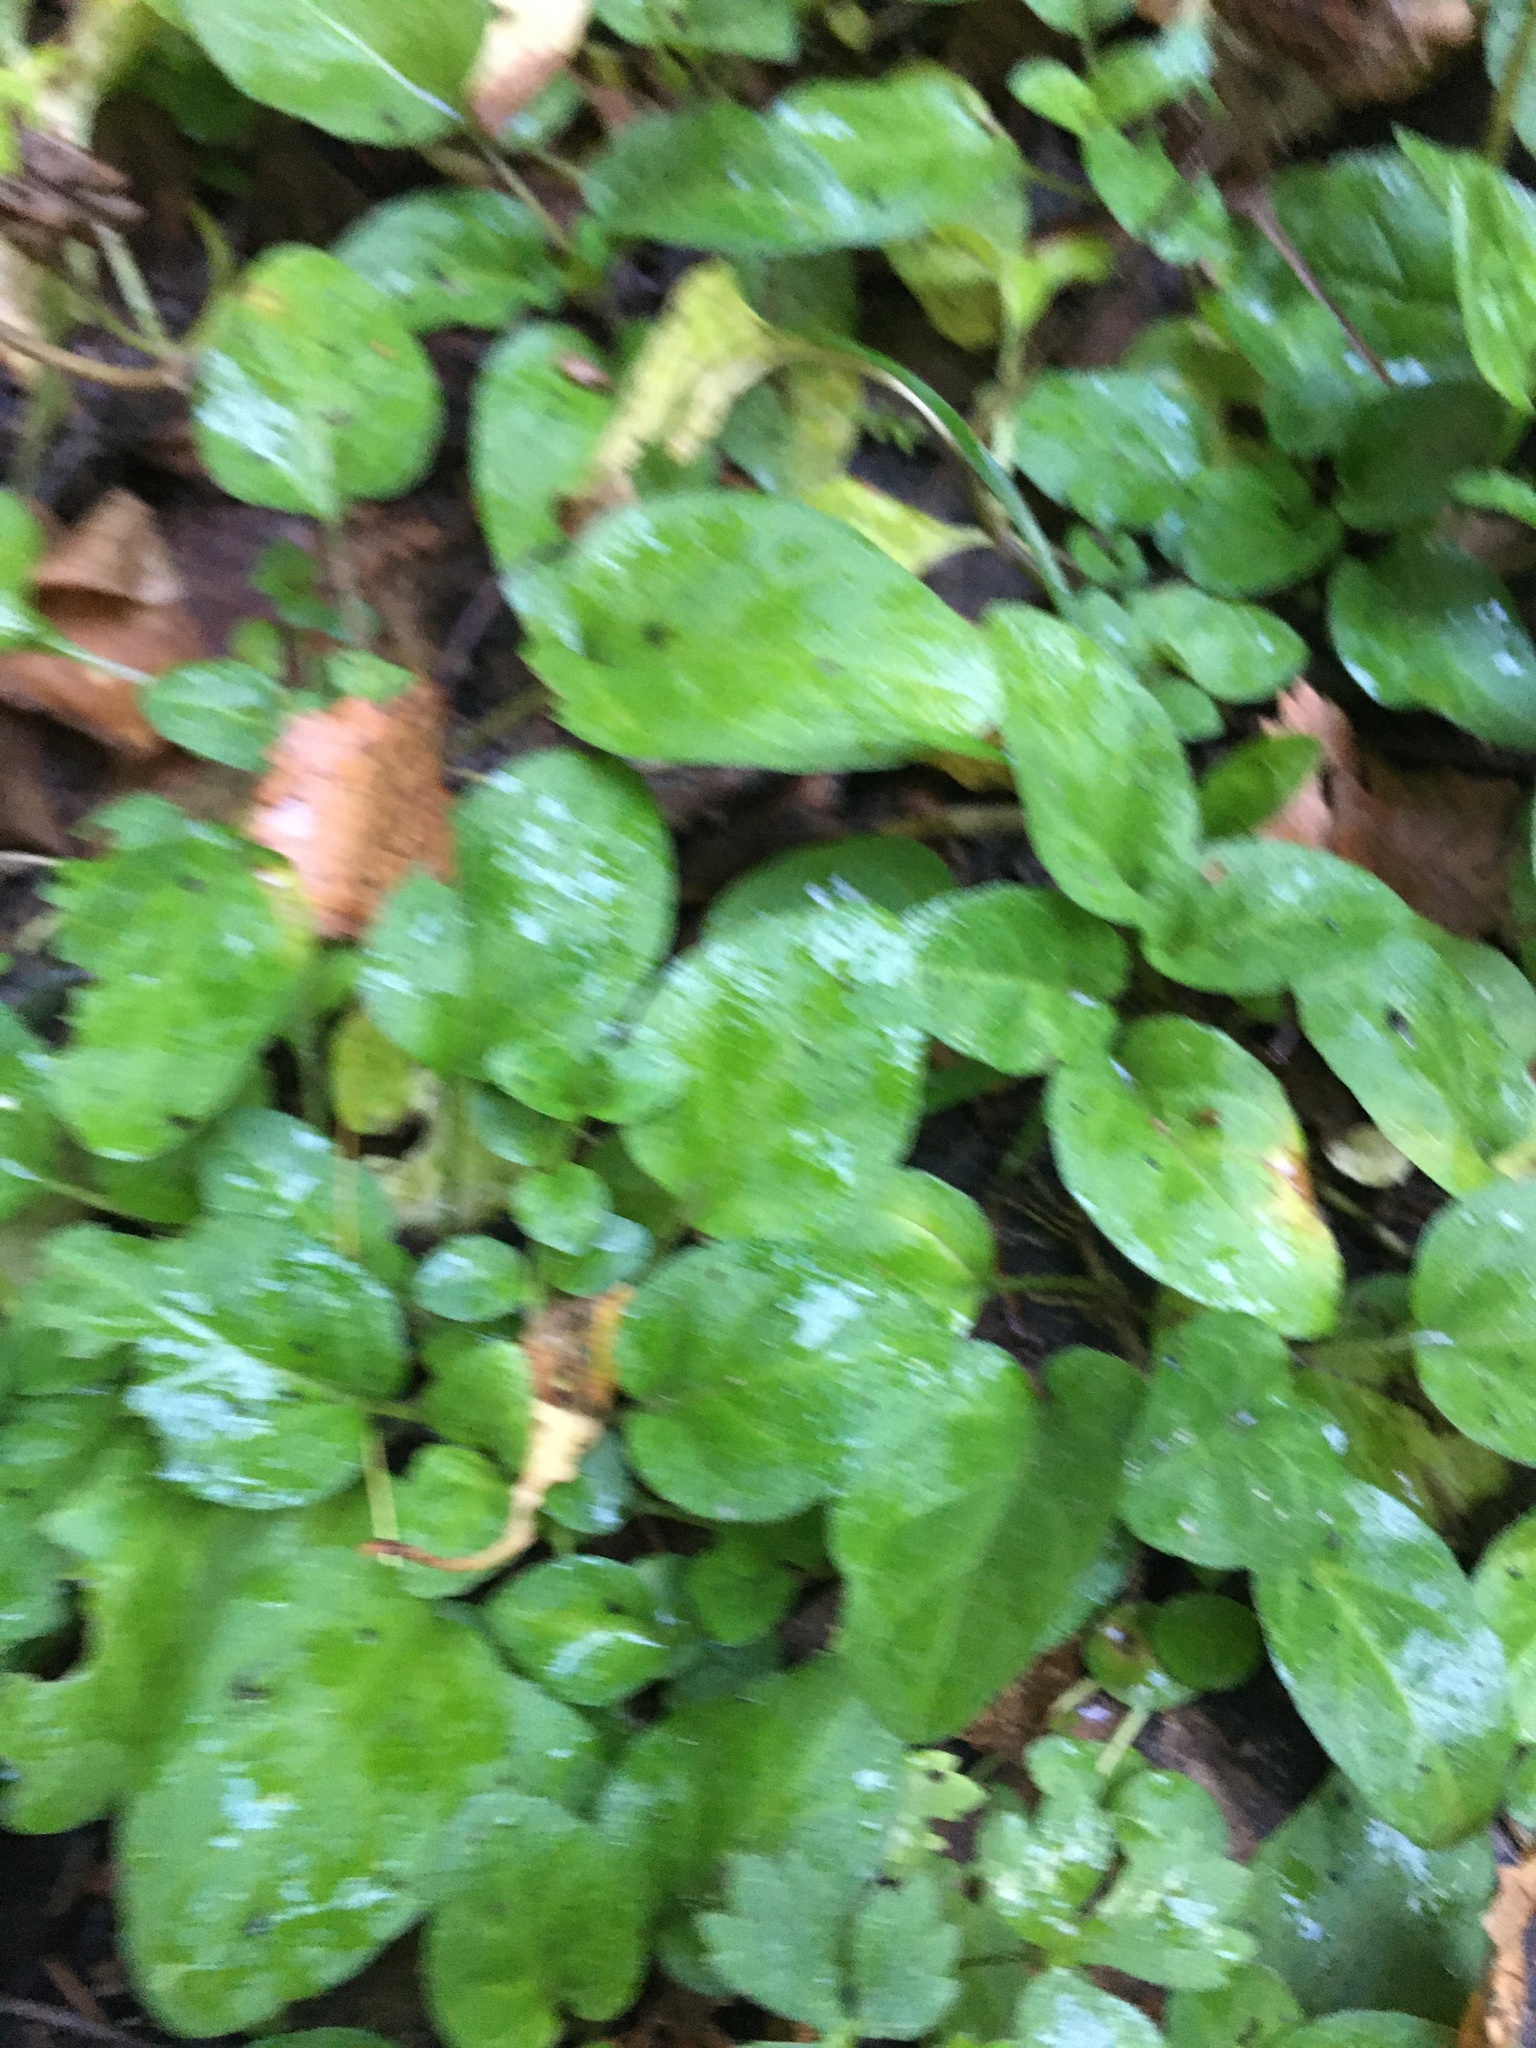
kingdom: Plantae
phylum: Tracheophyta
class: Magnoliopsida
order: Lamiales
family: Lamiaceae
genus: Prunella
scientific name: Prunella vulgaris
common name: Heal-all
